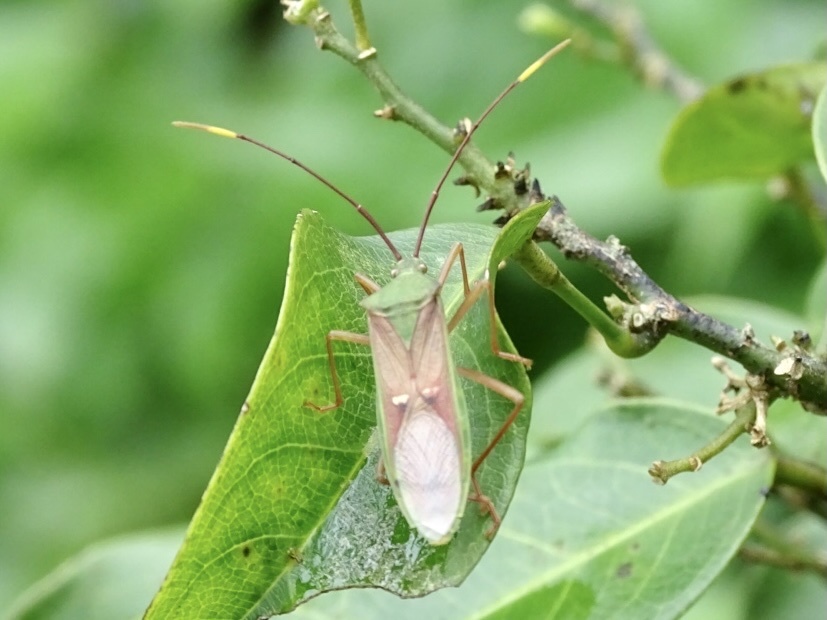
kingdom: Animalia
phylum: Arthropoda
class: Insecta
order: Hemiptera
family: Coreidae
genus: Homoeocerus
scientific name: Homoeocerus bipunctatus
